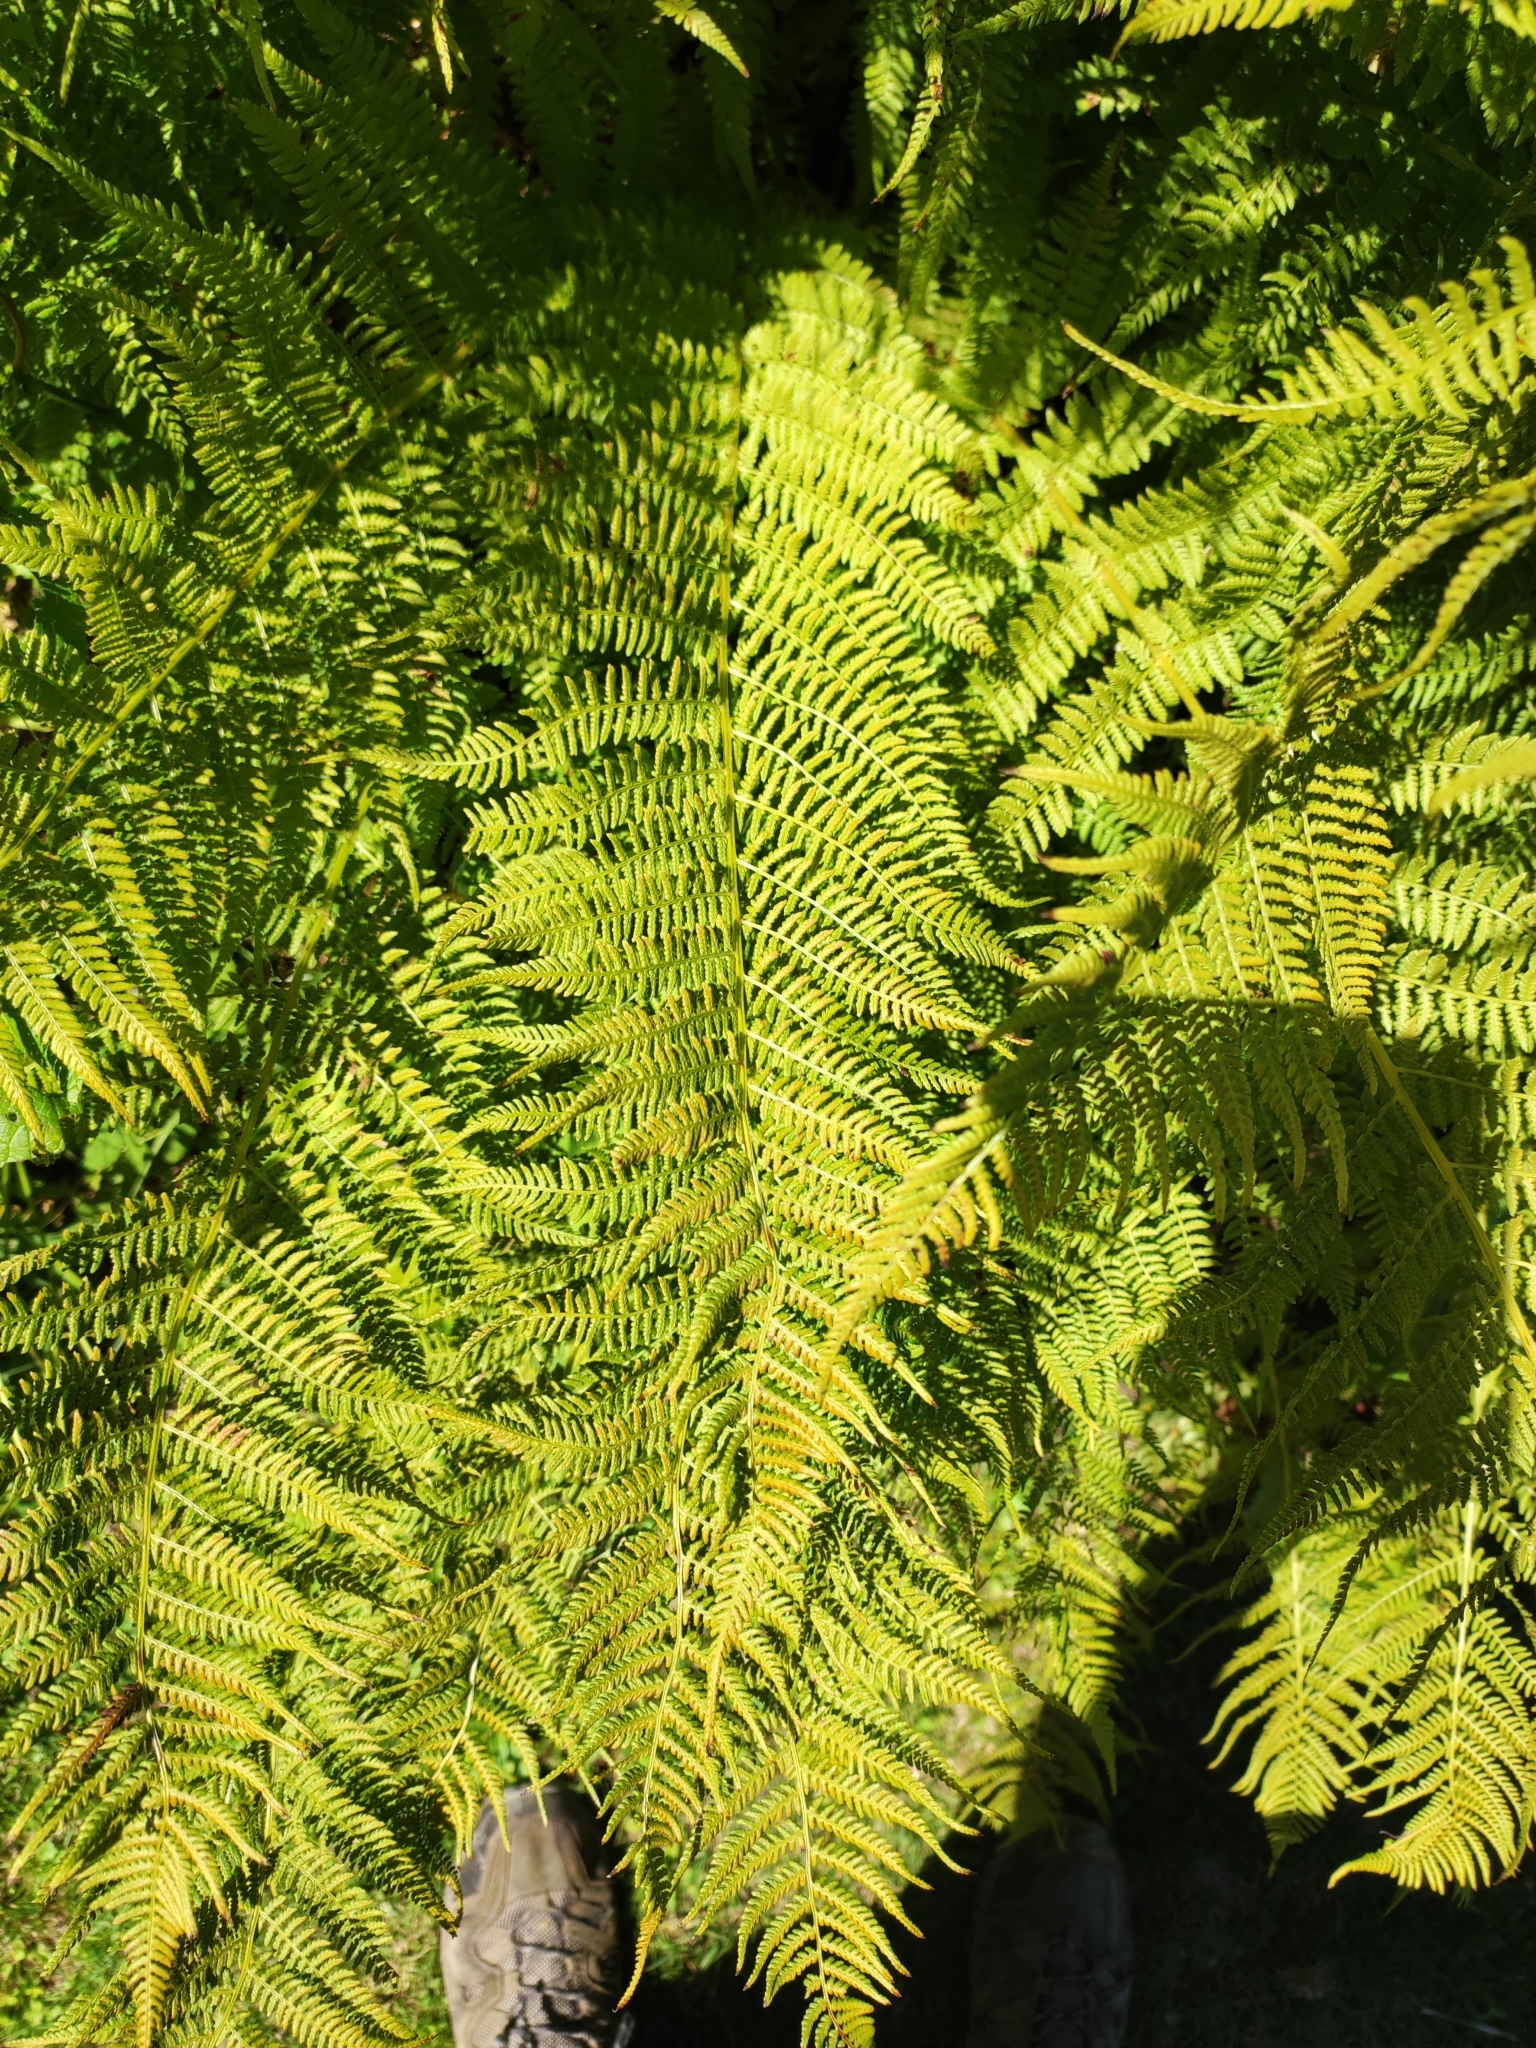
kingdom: Plantae
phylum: Tracheophyta
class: Polypodiopsida
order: Polypodiales
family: Athyriaceae
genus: Pseudathyrium
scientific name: Pseudathyrium alpestre
